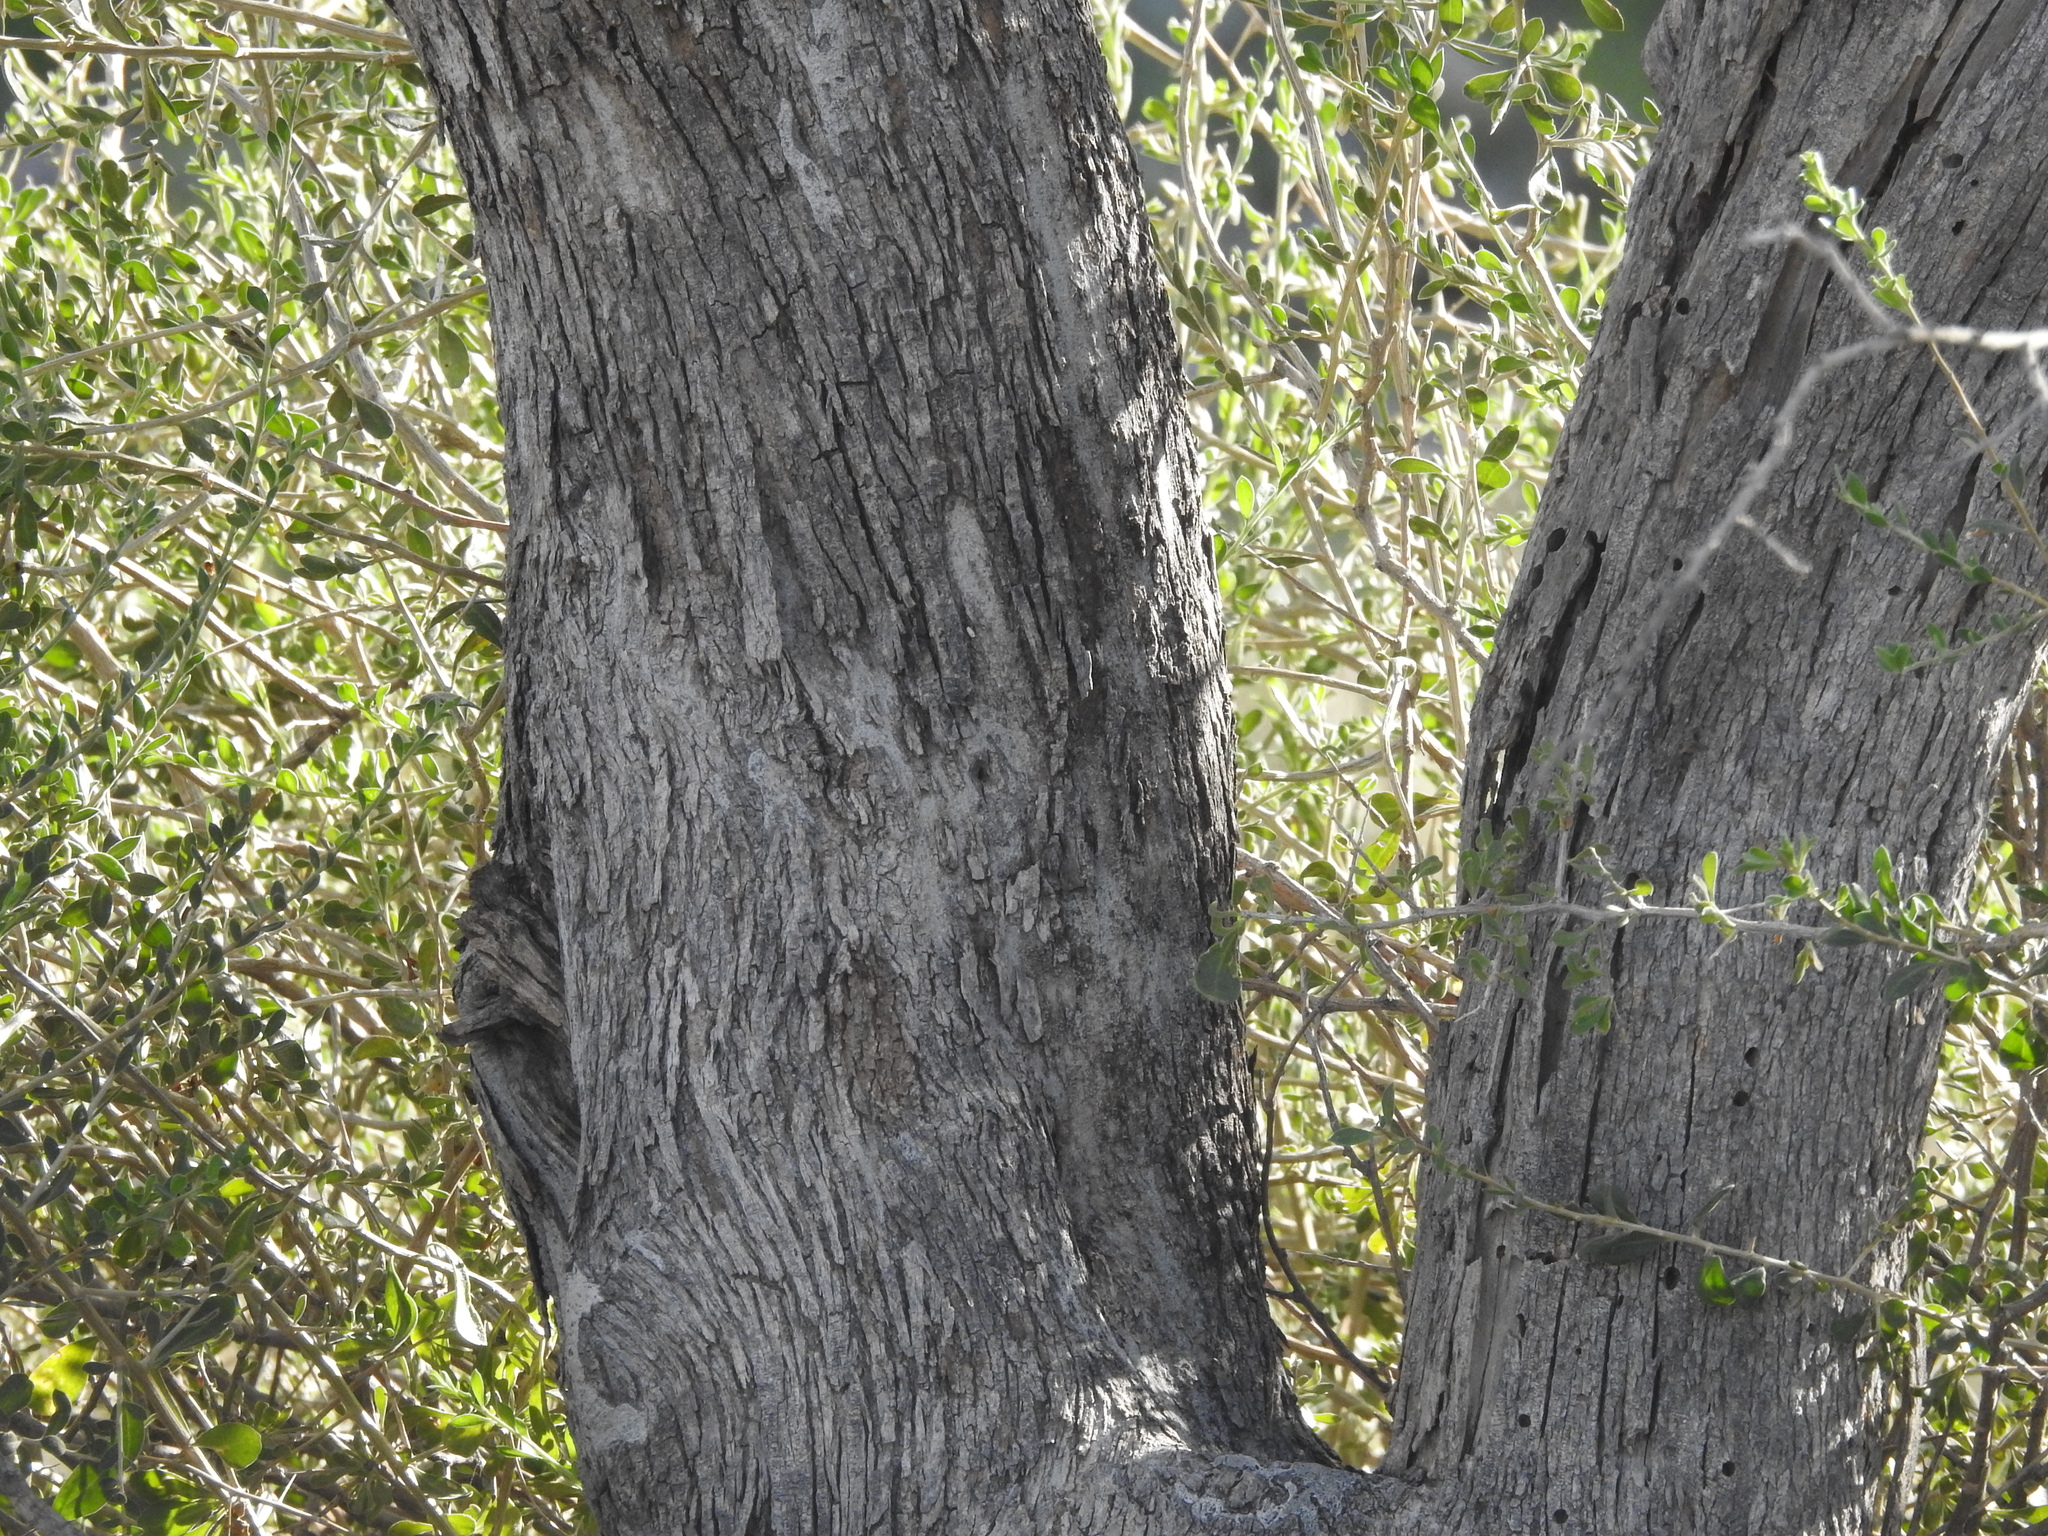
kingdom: Plantae
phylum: Tracheophyta
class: Magnoliopsida
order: Fabales
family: Fabaceae
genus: Olneya
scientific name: Olneya tesota
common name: Desert ironwood
